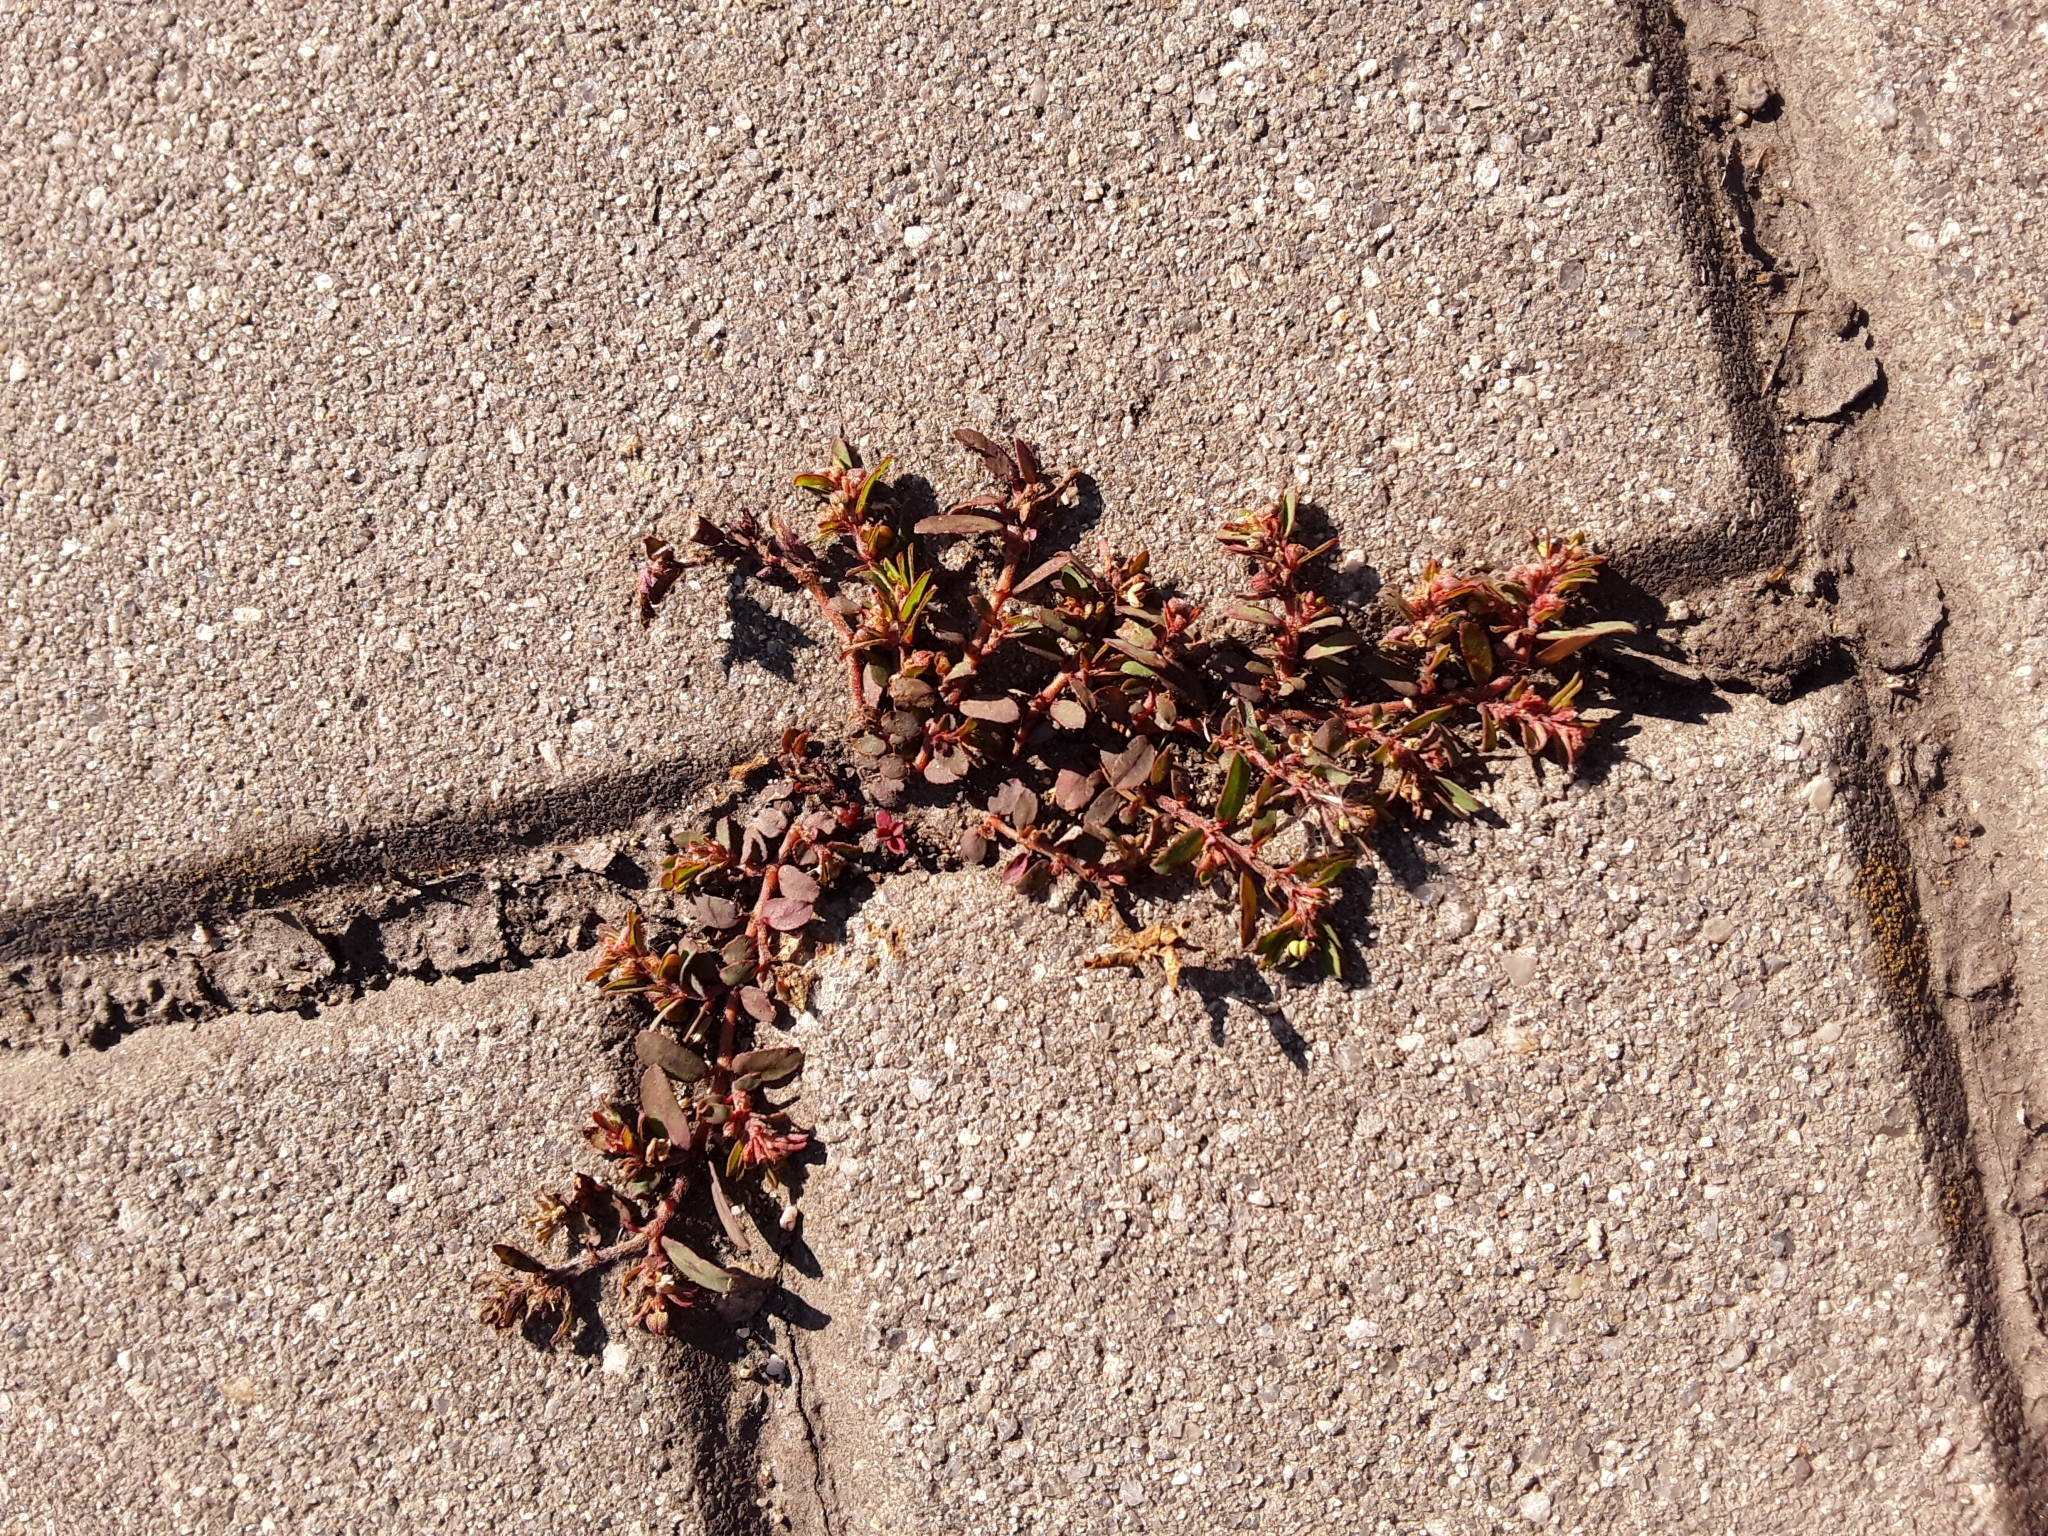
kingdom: Plantae
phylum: Tracheophyta
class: Magnoliopsida
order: Malpighiales
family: Euphorbiaceae
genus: Euphorbia
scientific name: Euphorbia maculata
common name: Spotted spurge
